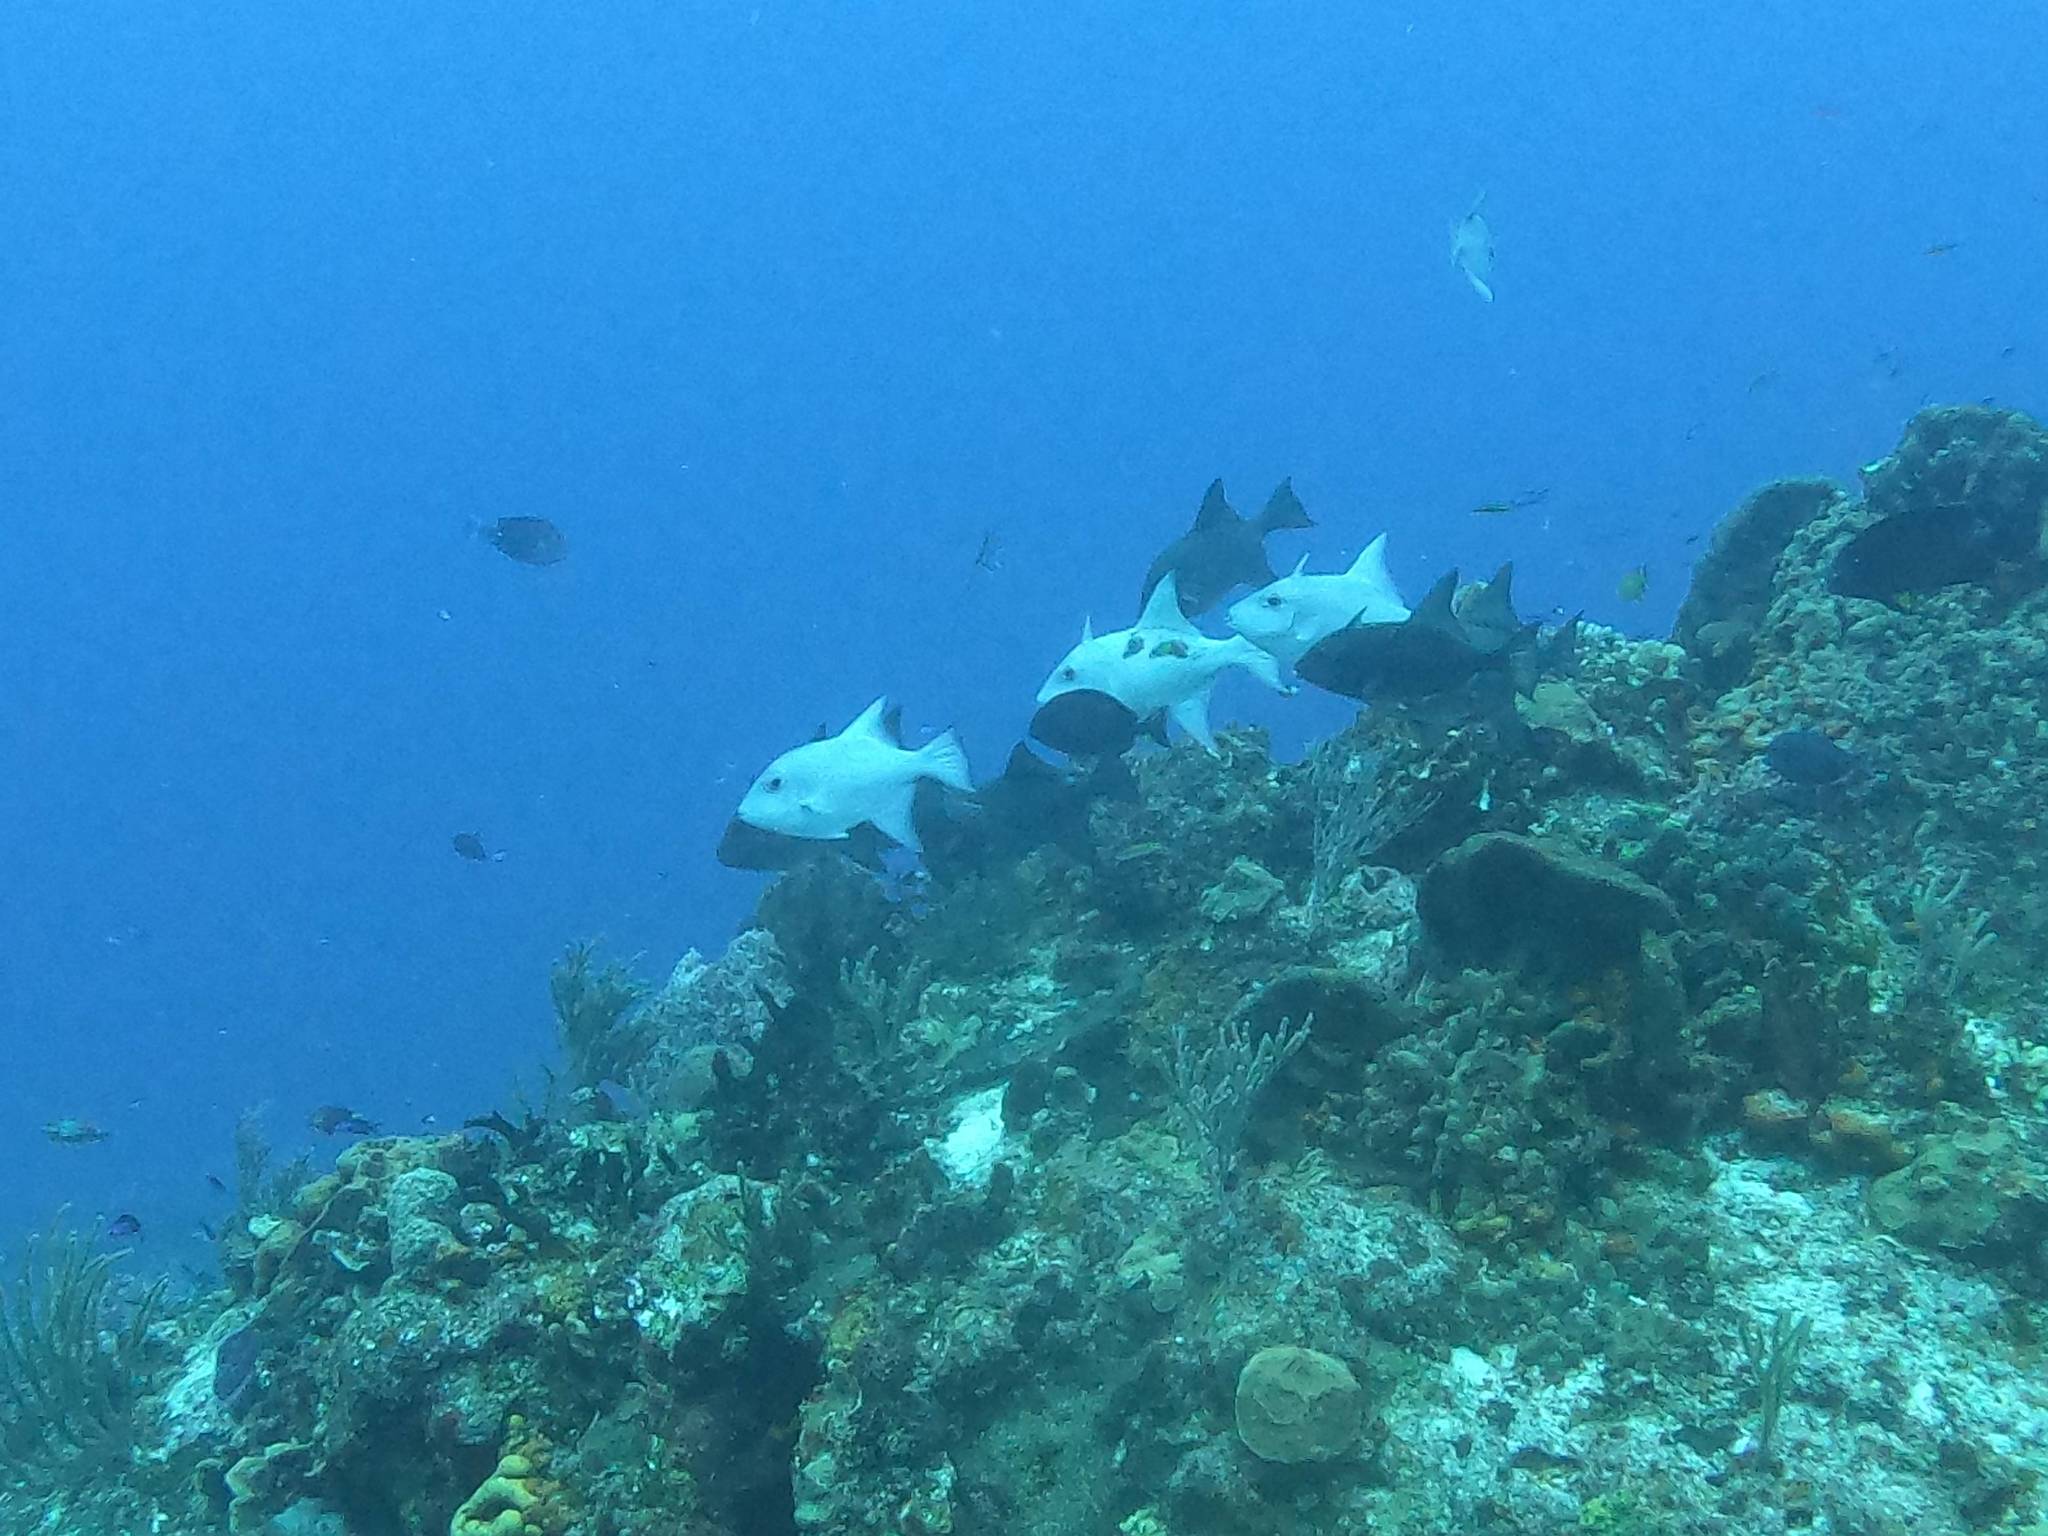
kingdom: Animalia
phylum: Chordata
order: Tetraodontiformes
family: Balistidae
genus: Canthidermis
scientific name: Canthidermis sufflamen
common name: Ocean triggerfish
